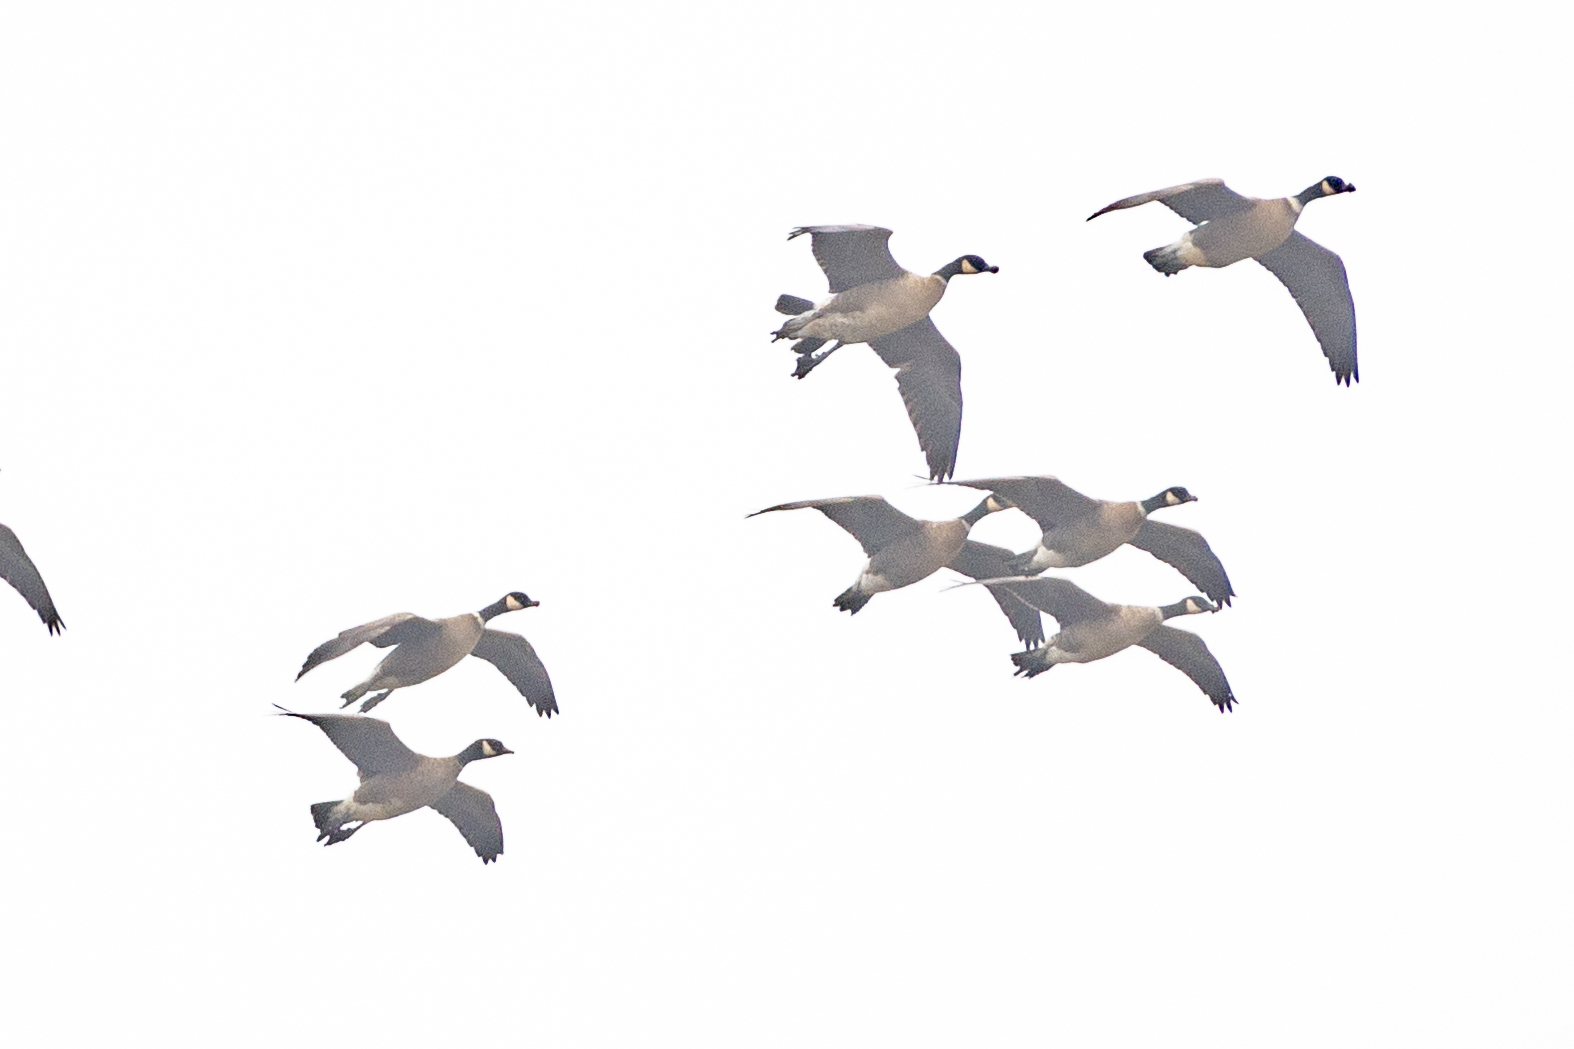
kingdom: Animalia
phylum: Chordata
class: Aves
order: Anseriformes
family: Anatidae
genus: Branta
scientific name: Branta hutchinsii
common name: Cackling goose
